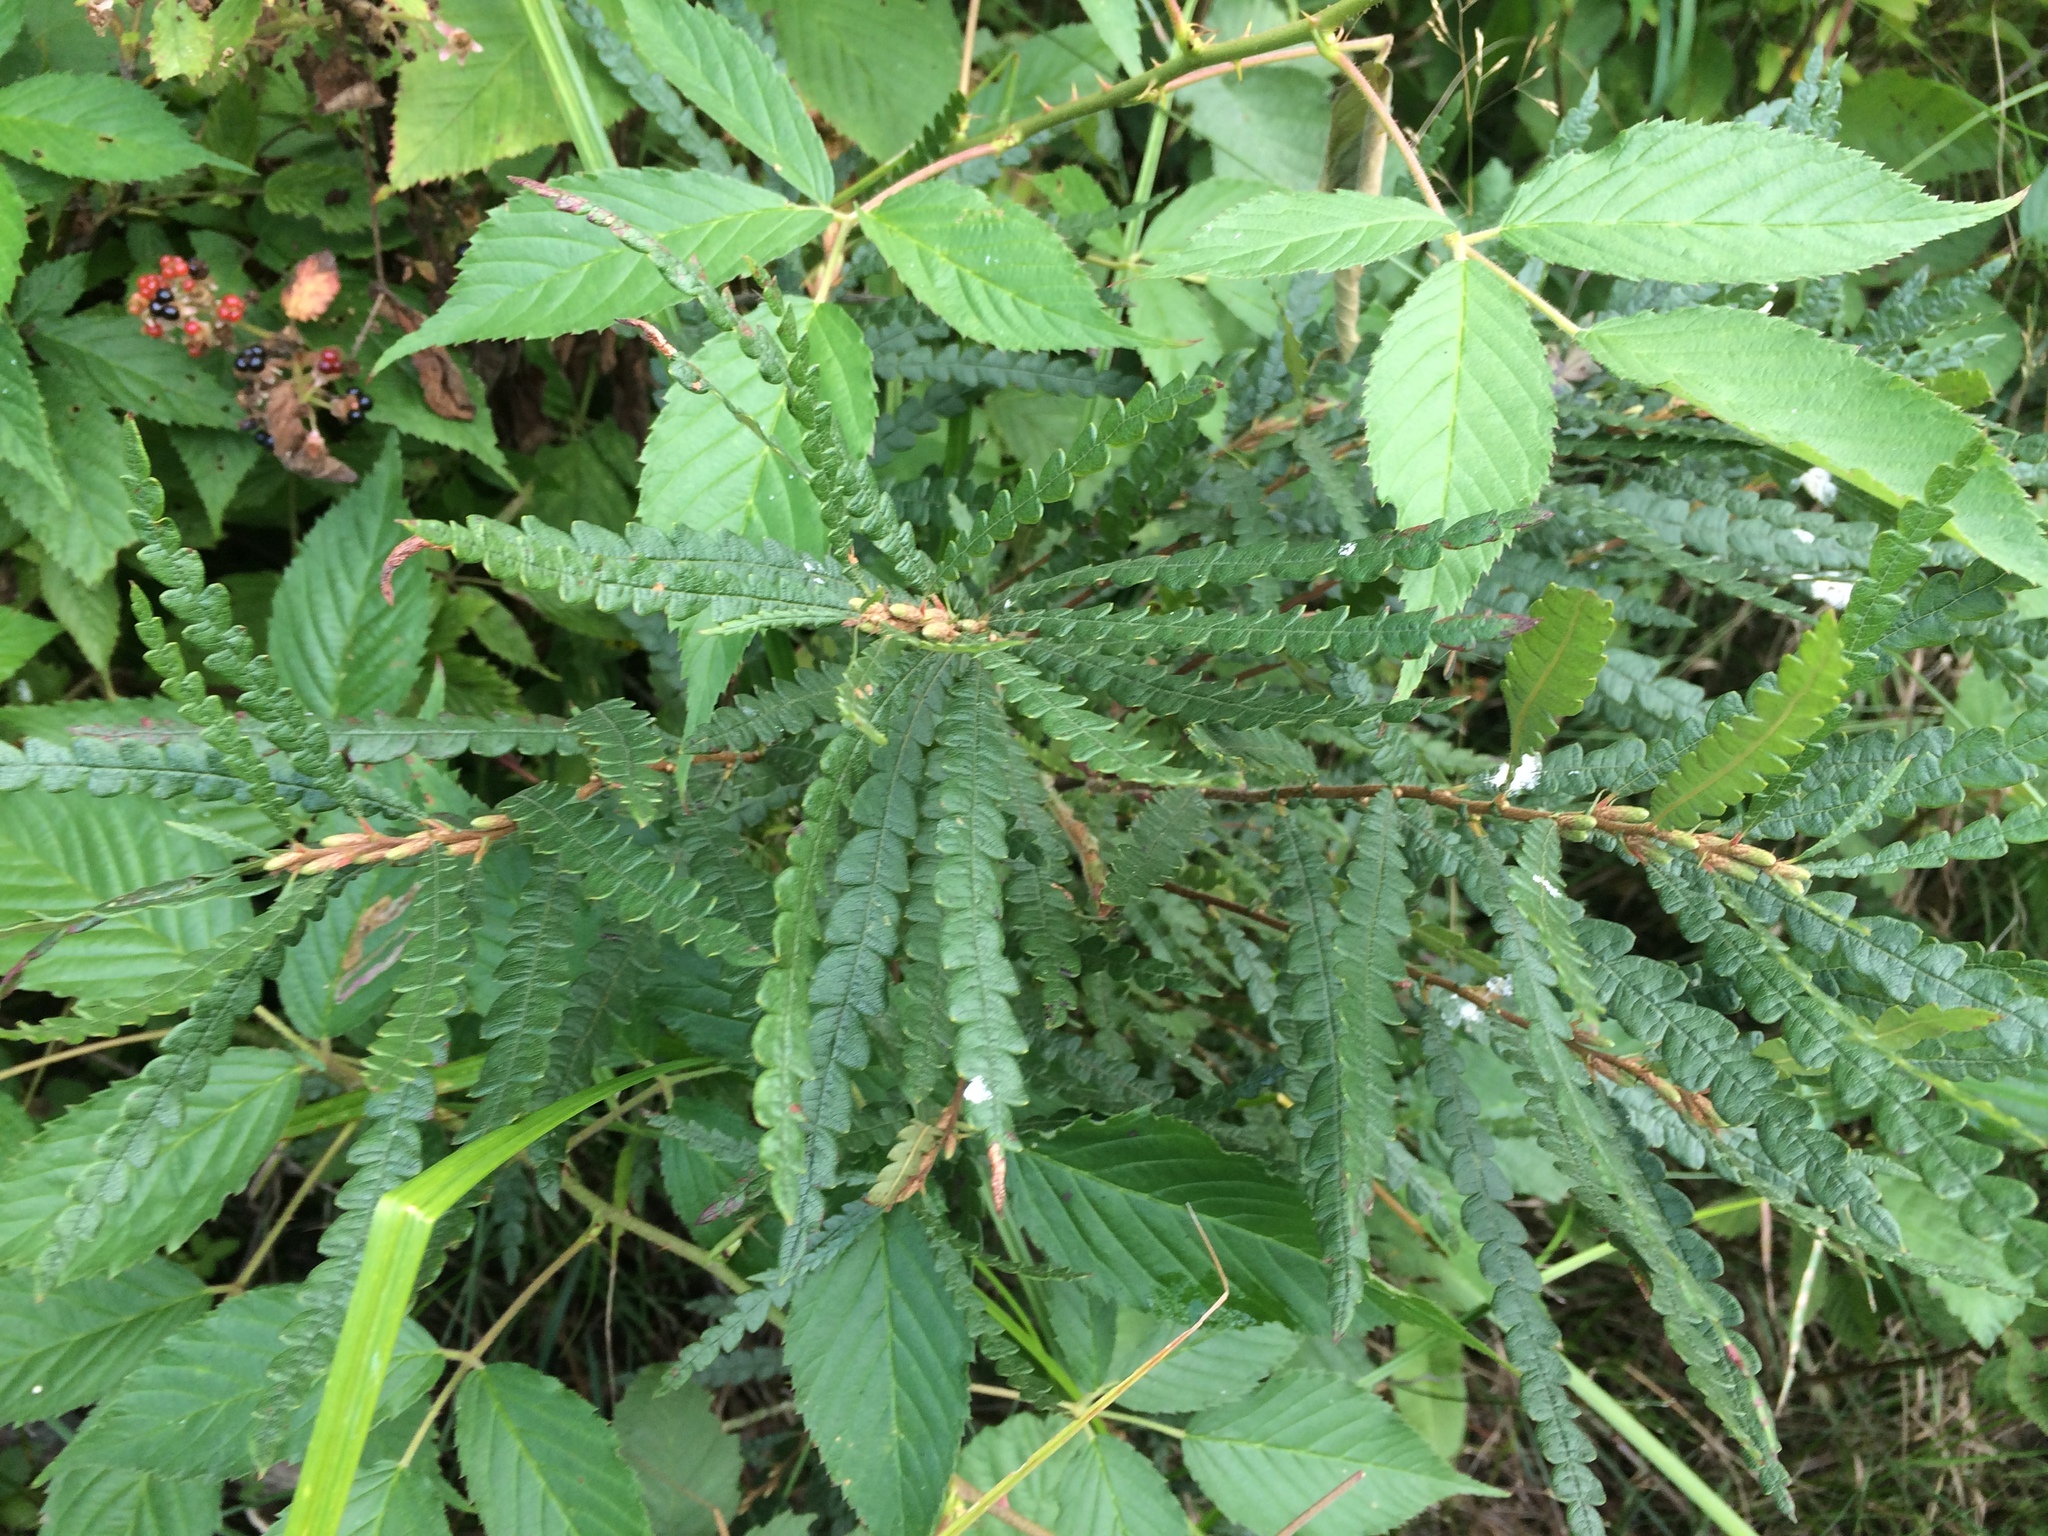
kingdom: Plantae
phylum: Tracheophyta
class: Magnoliopsida
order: Fagales
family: Myricaceae
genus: Comptonia
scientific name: Comptonia peregrina
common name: Sweet-fern
